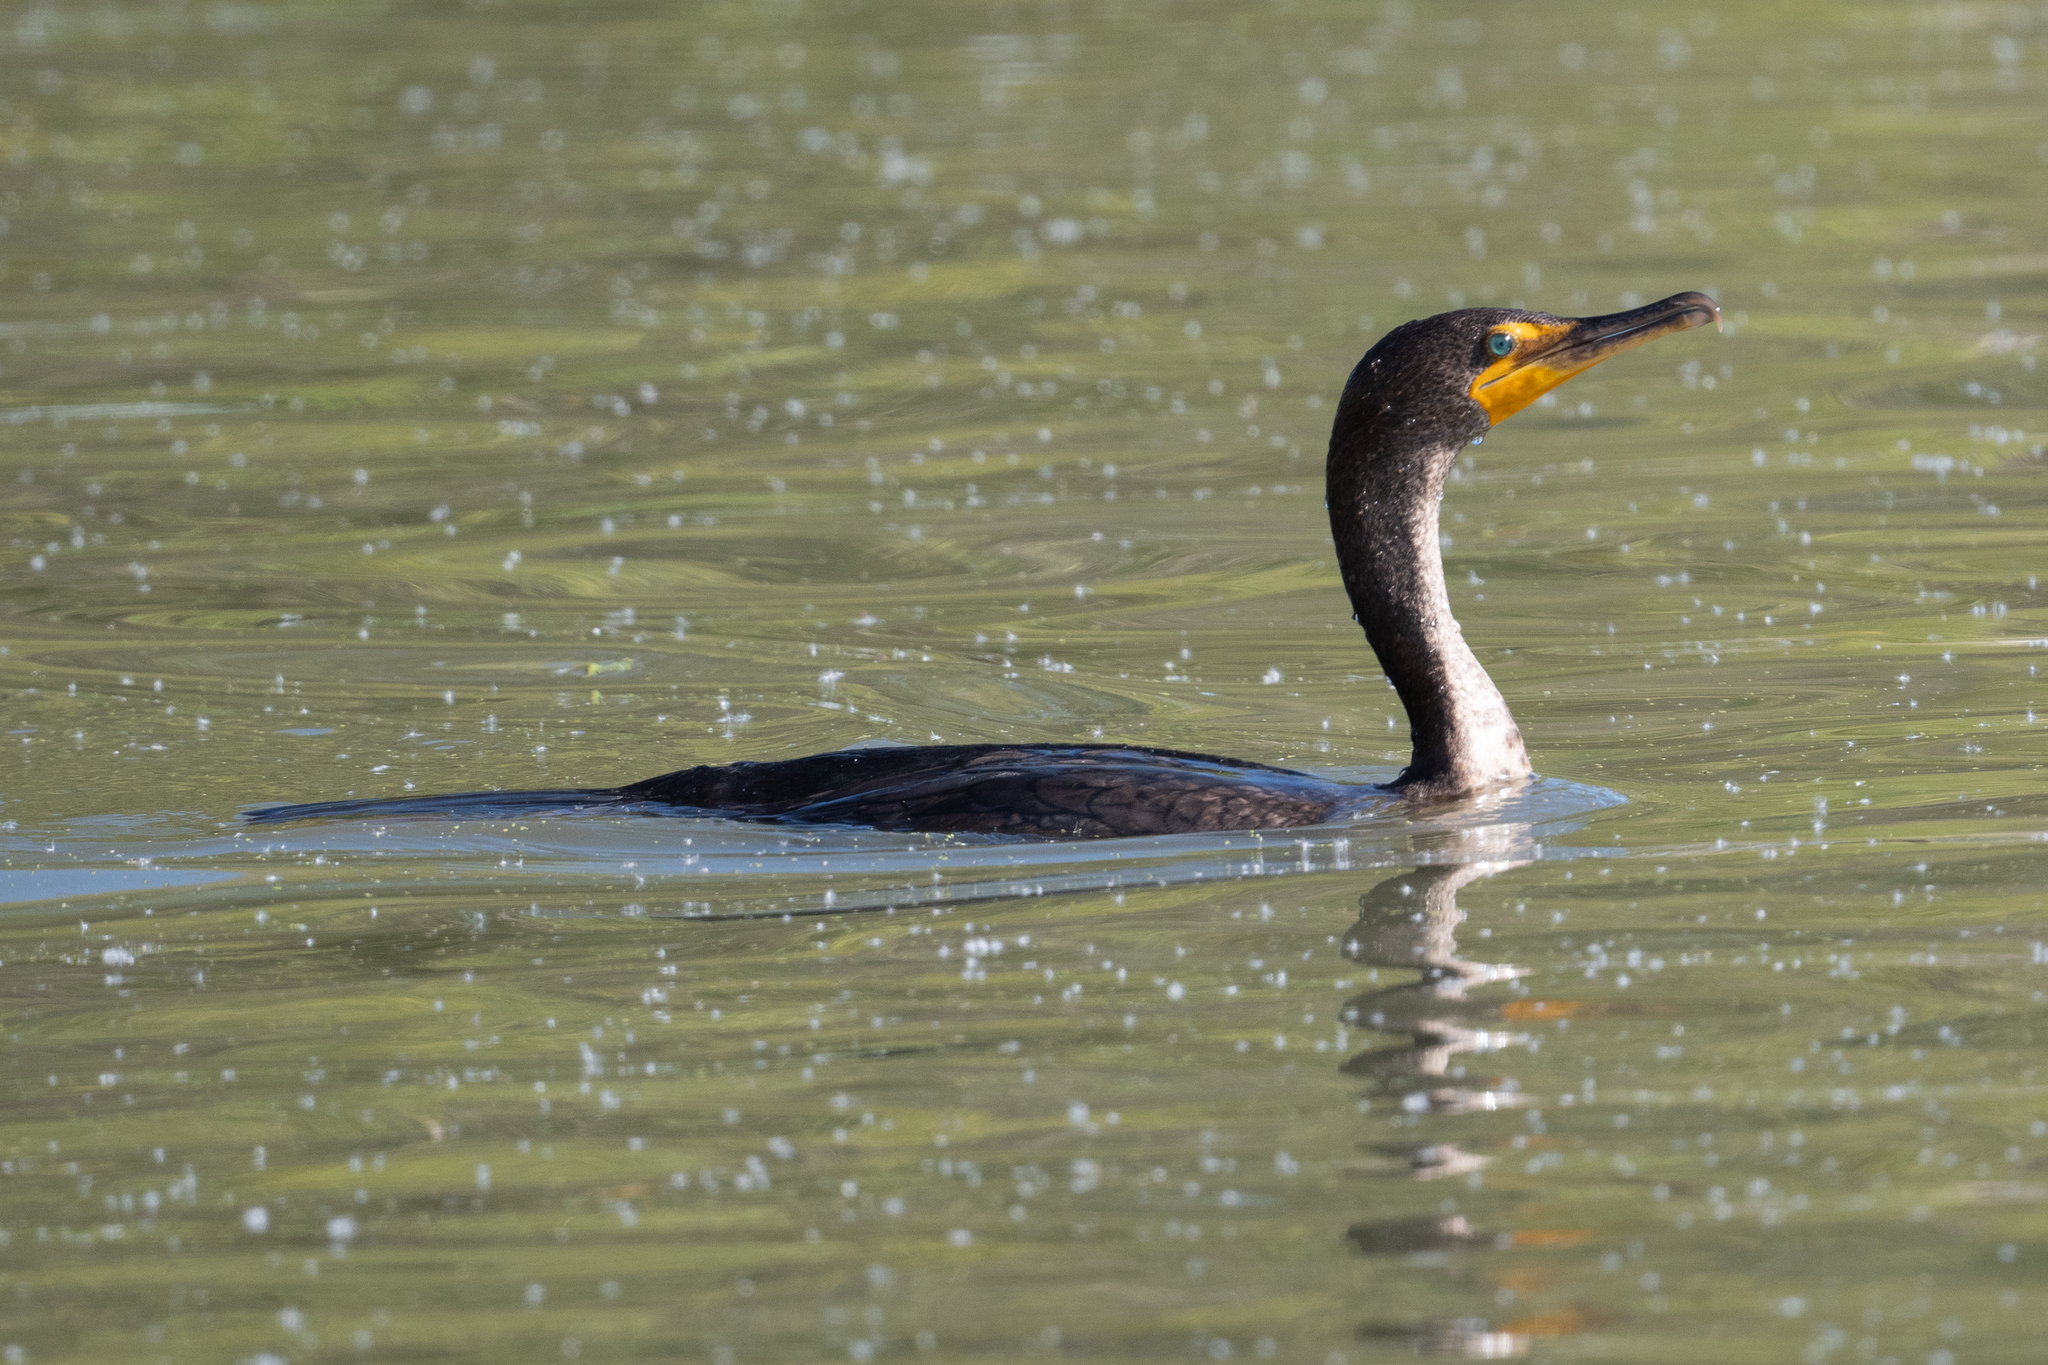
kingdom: Animalia
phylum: Chordata
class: Aves
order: Suliformes
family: Phalacrocoracidae
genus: Phalacrocorax
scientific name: Phalacrocorax auritus
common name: Double-crested cormorant
